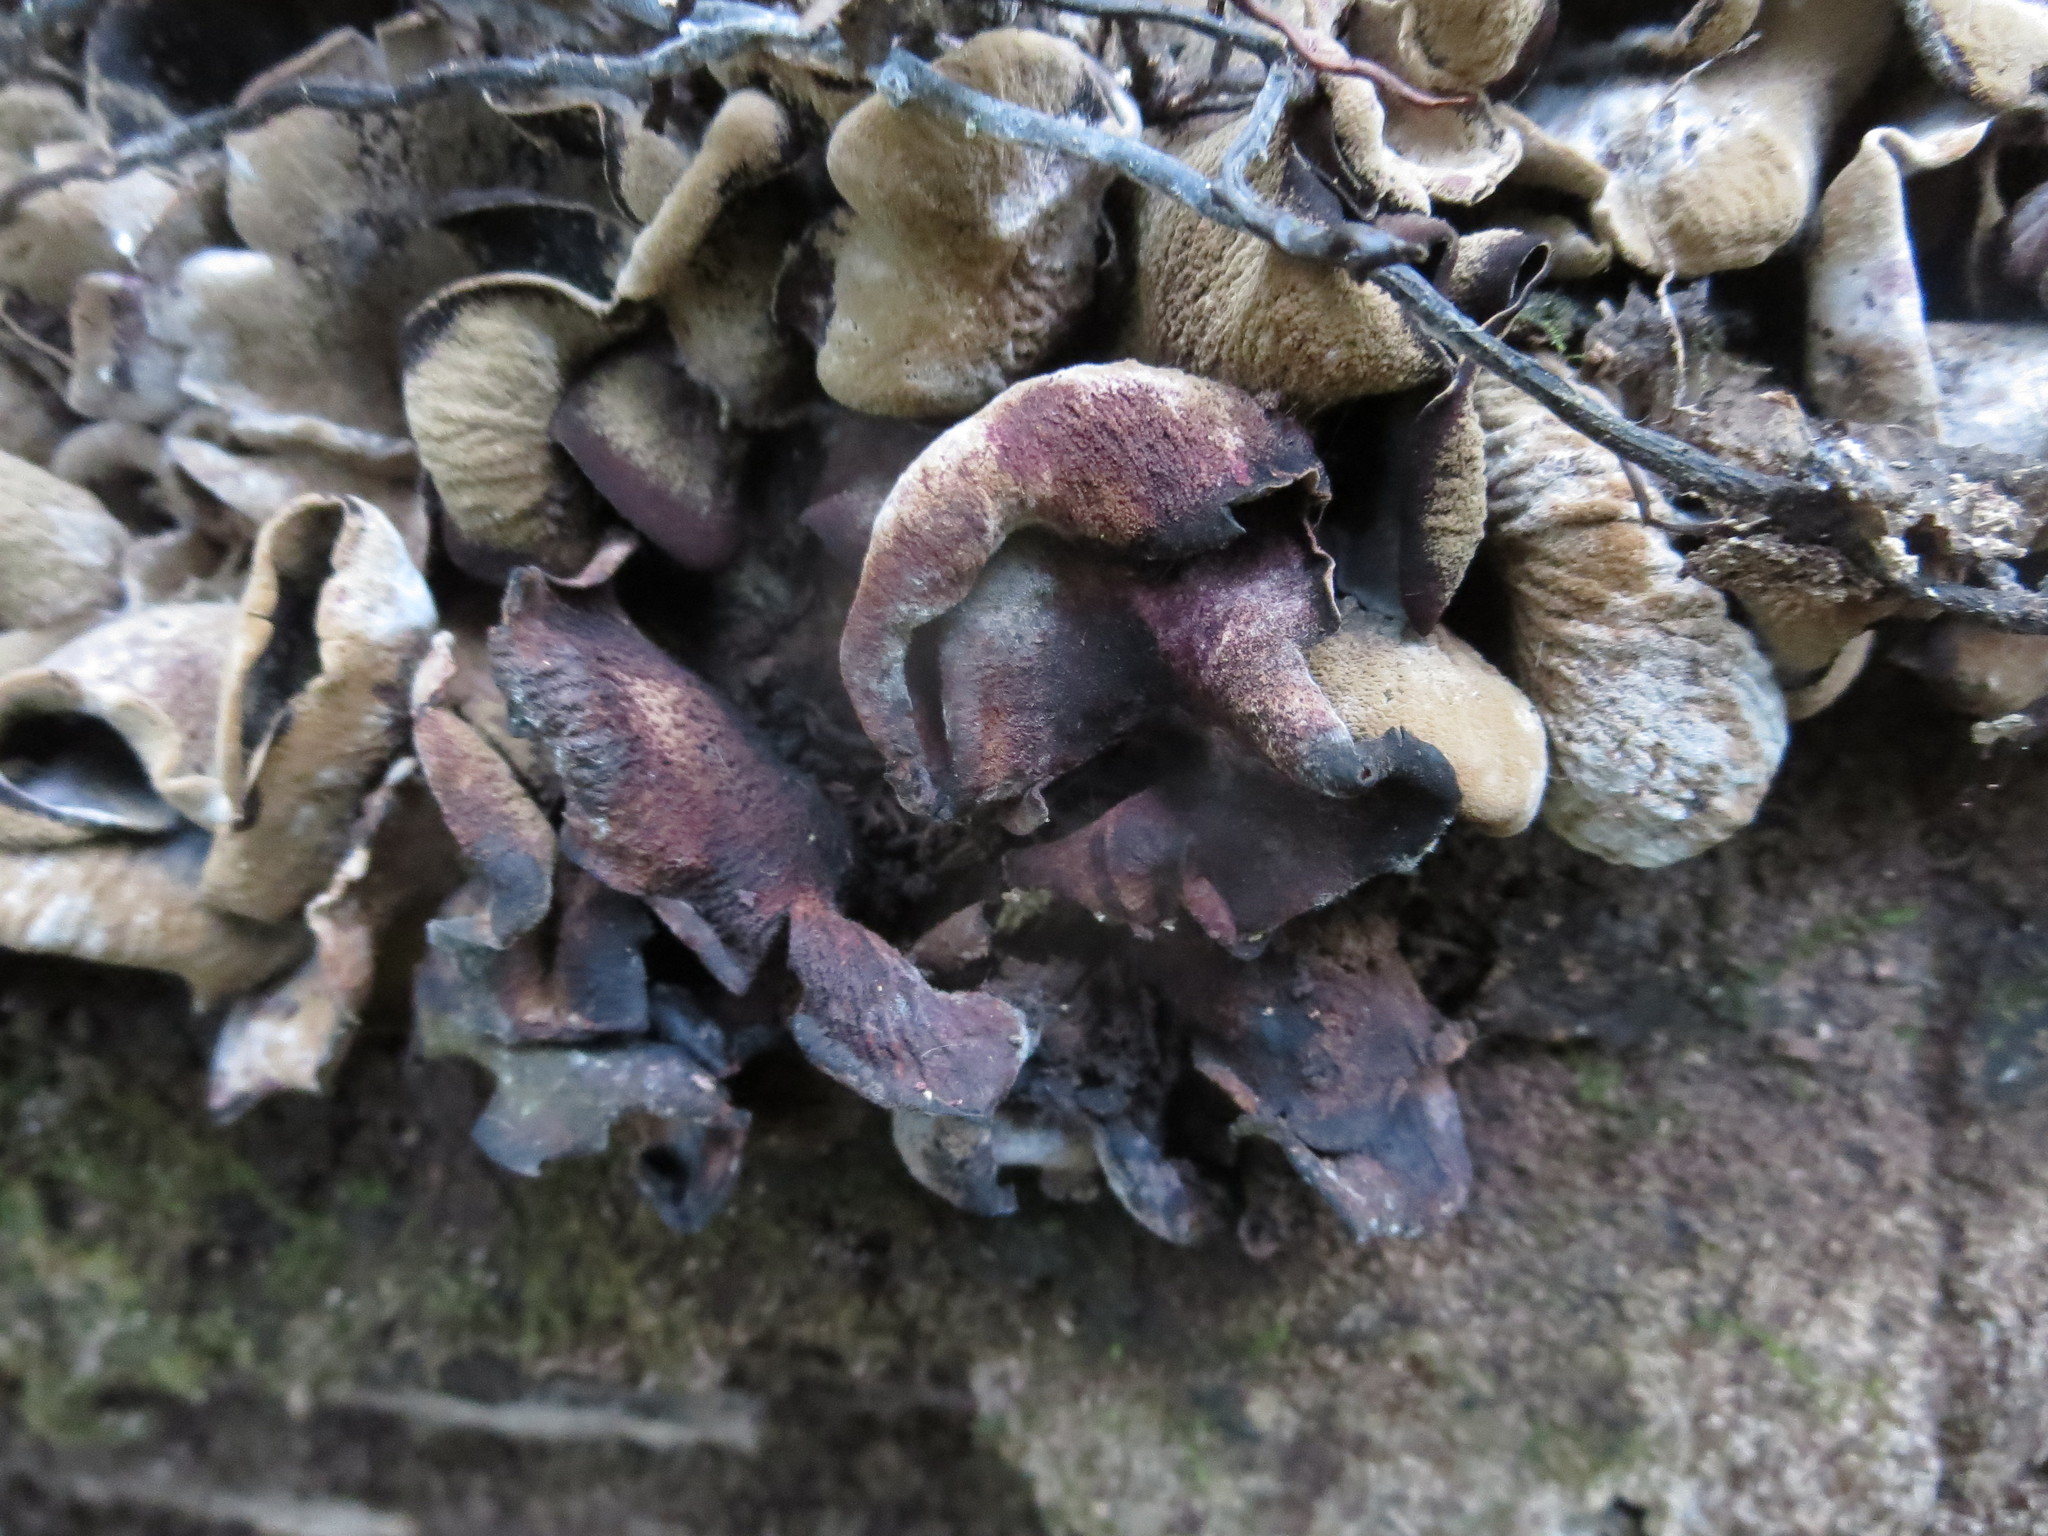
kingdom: Fungi
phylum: Ascomycota
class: Leotiomycetes
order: Helotiales
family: Cordieritidaceae
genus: Diplocarpa
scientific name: Diplocarpa irregularis
